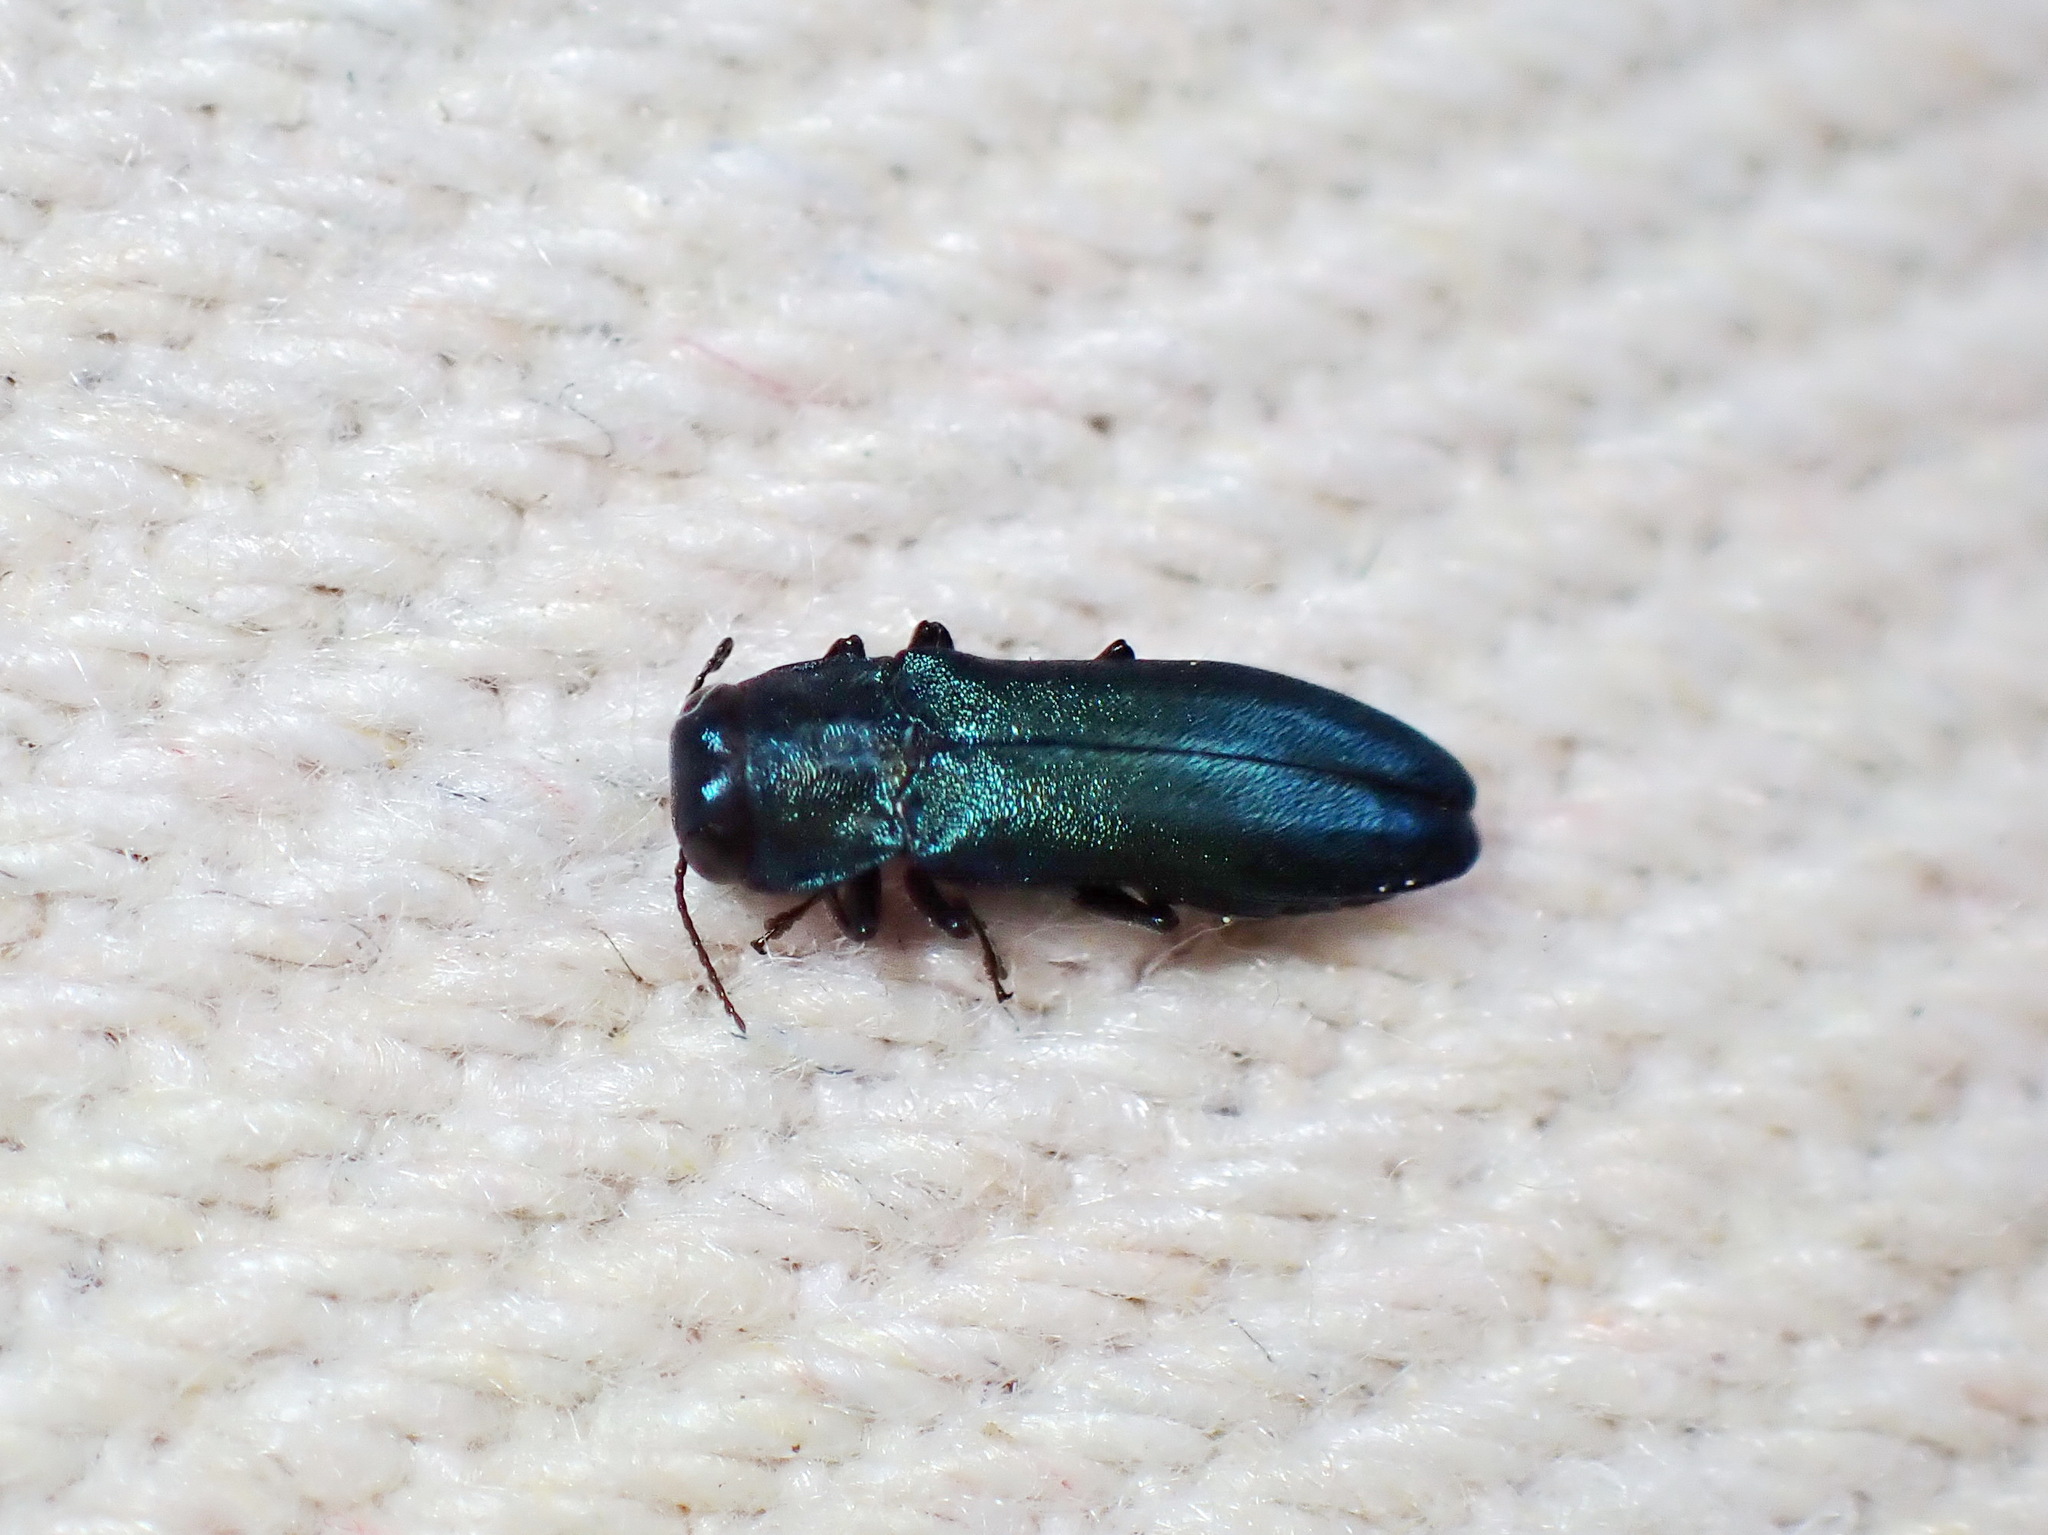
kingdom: Animalia
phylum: Arthropoda
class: Insecta
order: Coleoptera
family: Buprestidae
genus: Agrilus
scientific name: Agrilus cyanescens
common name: Bluish borer beetle
